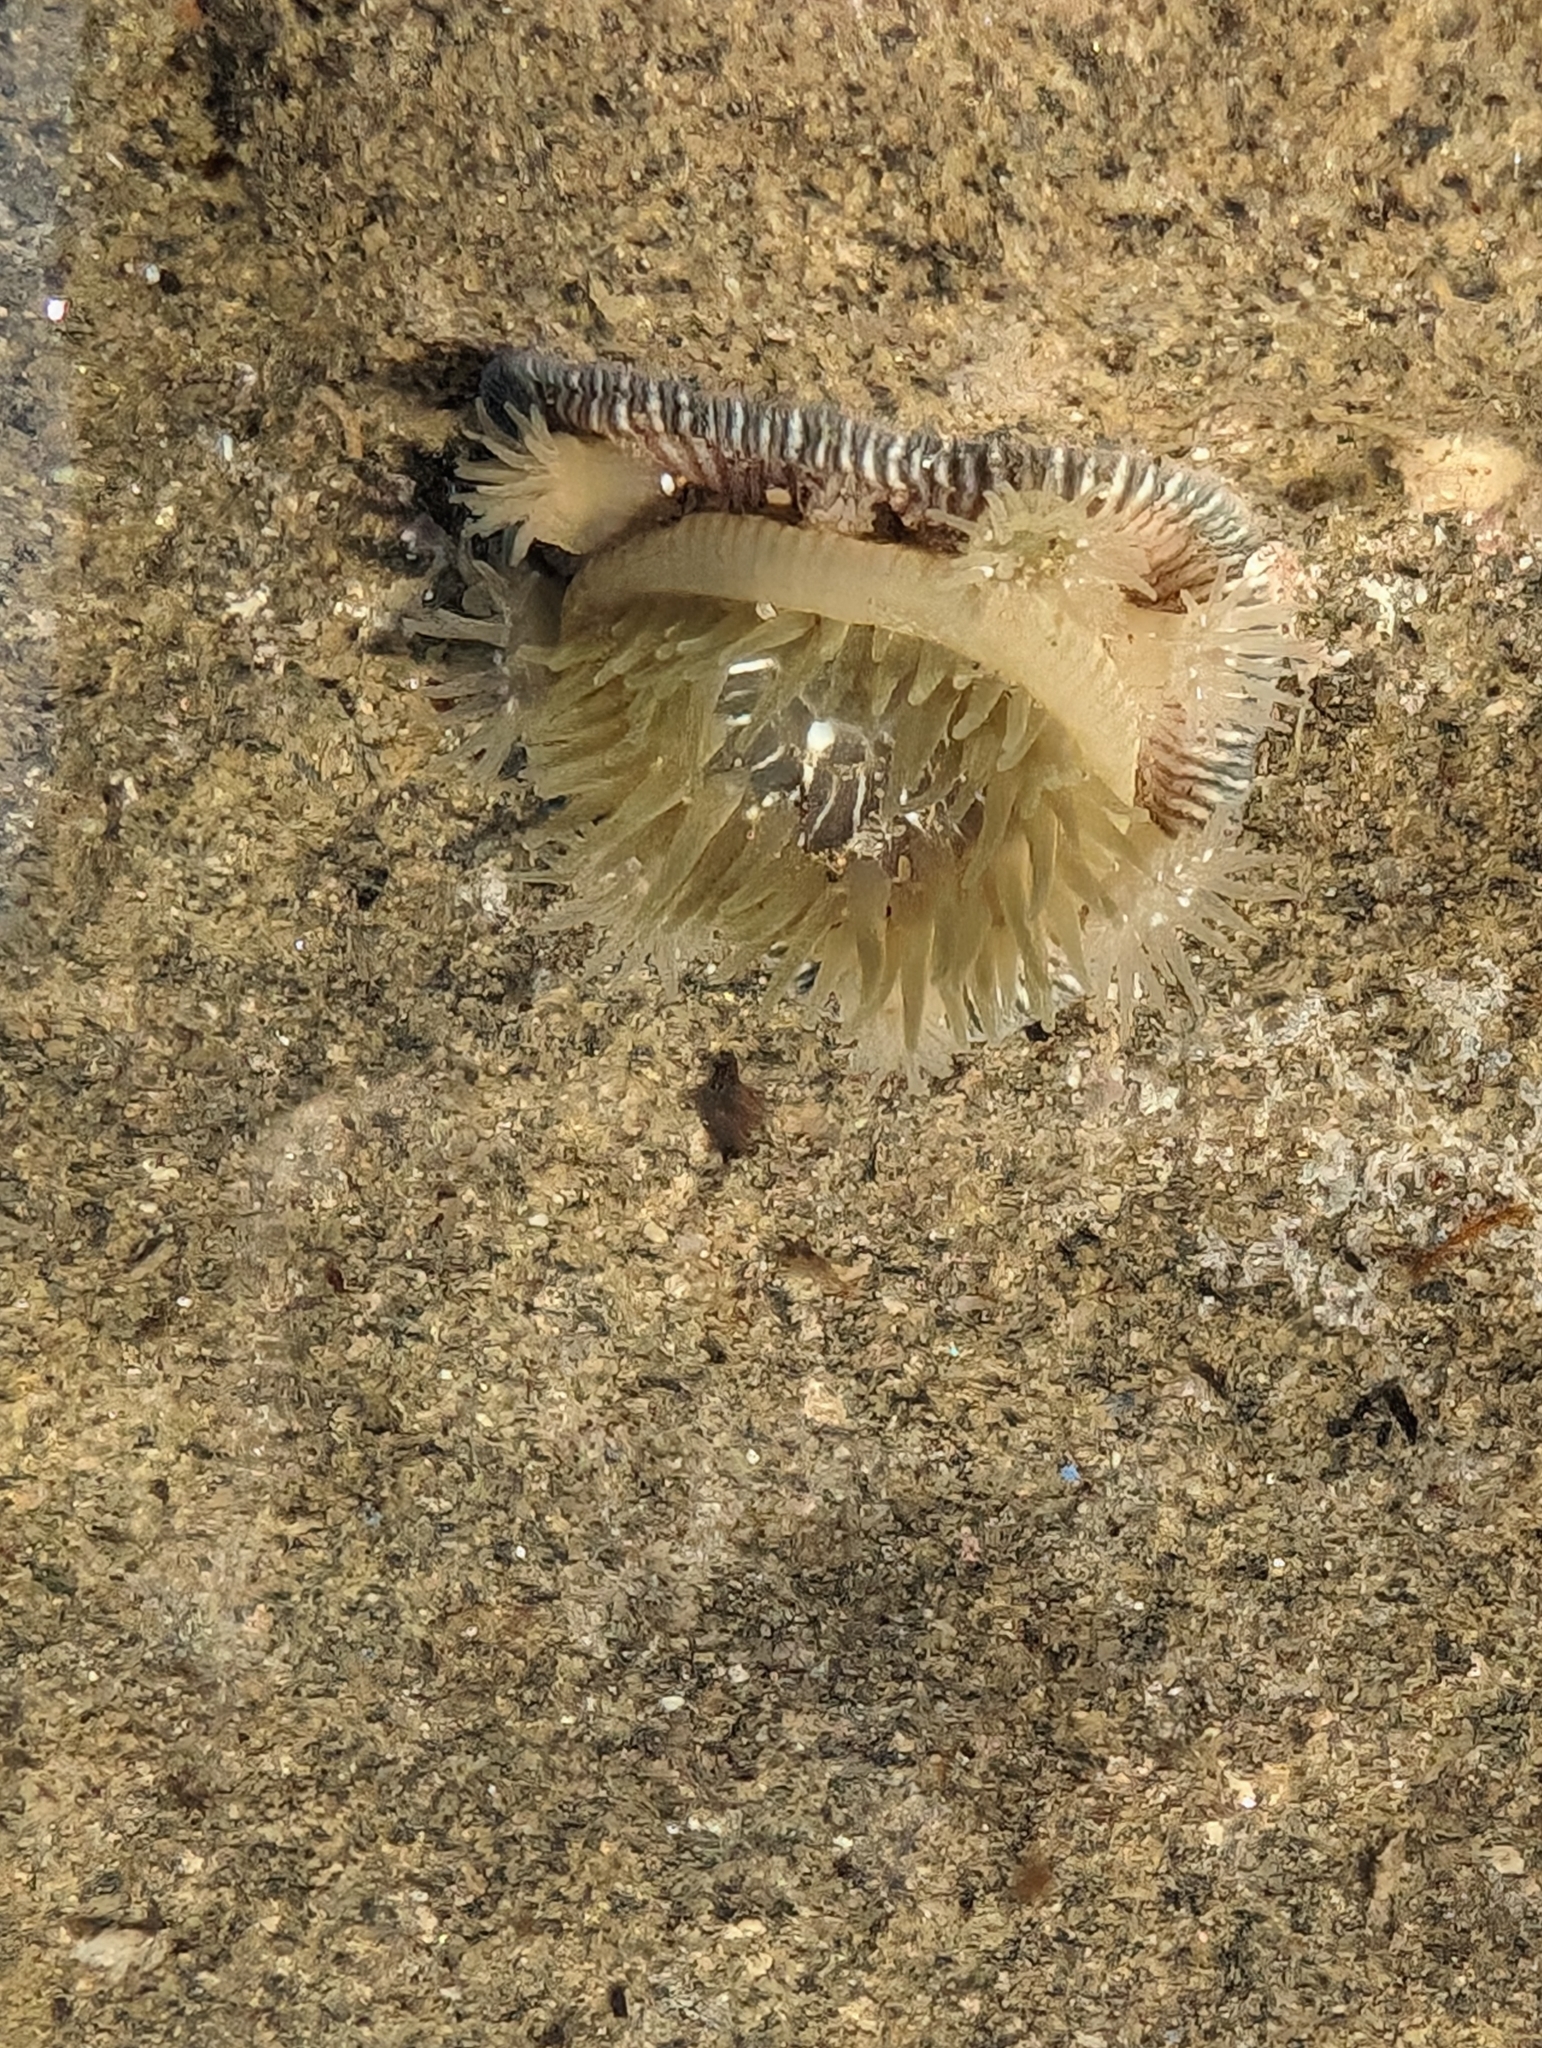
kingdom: Animalia
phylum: Cnidaria
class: Anthozoa
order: Actiniaria
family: Actiniidae
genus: Epiactis
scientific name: Epiactis prolifera
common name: Brooding anemone
